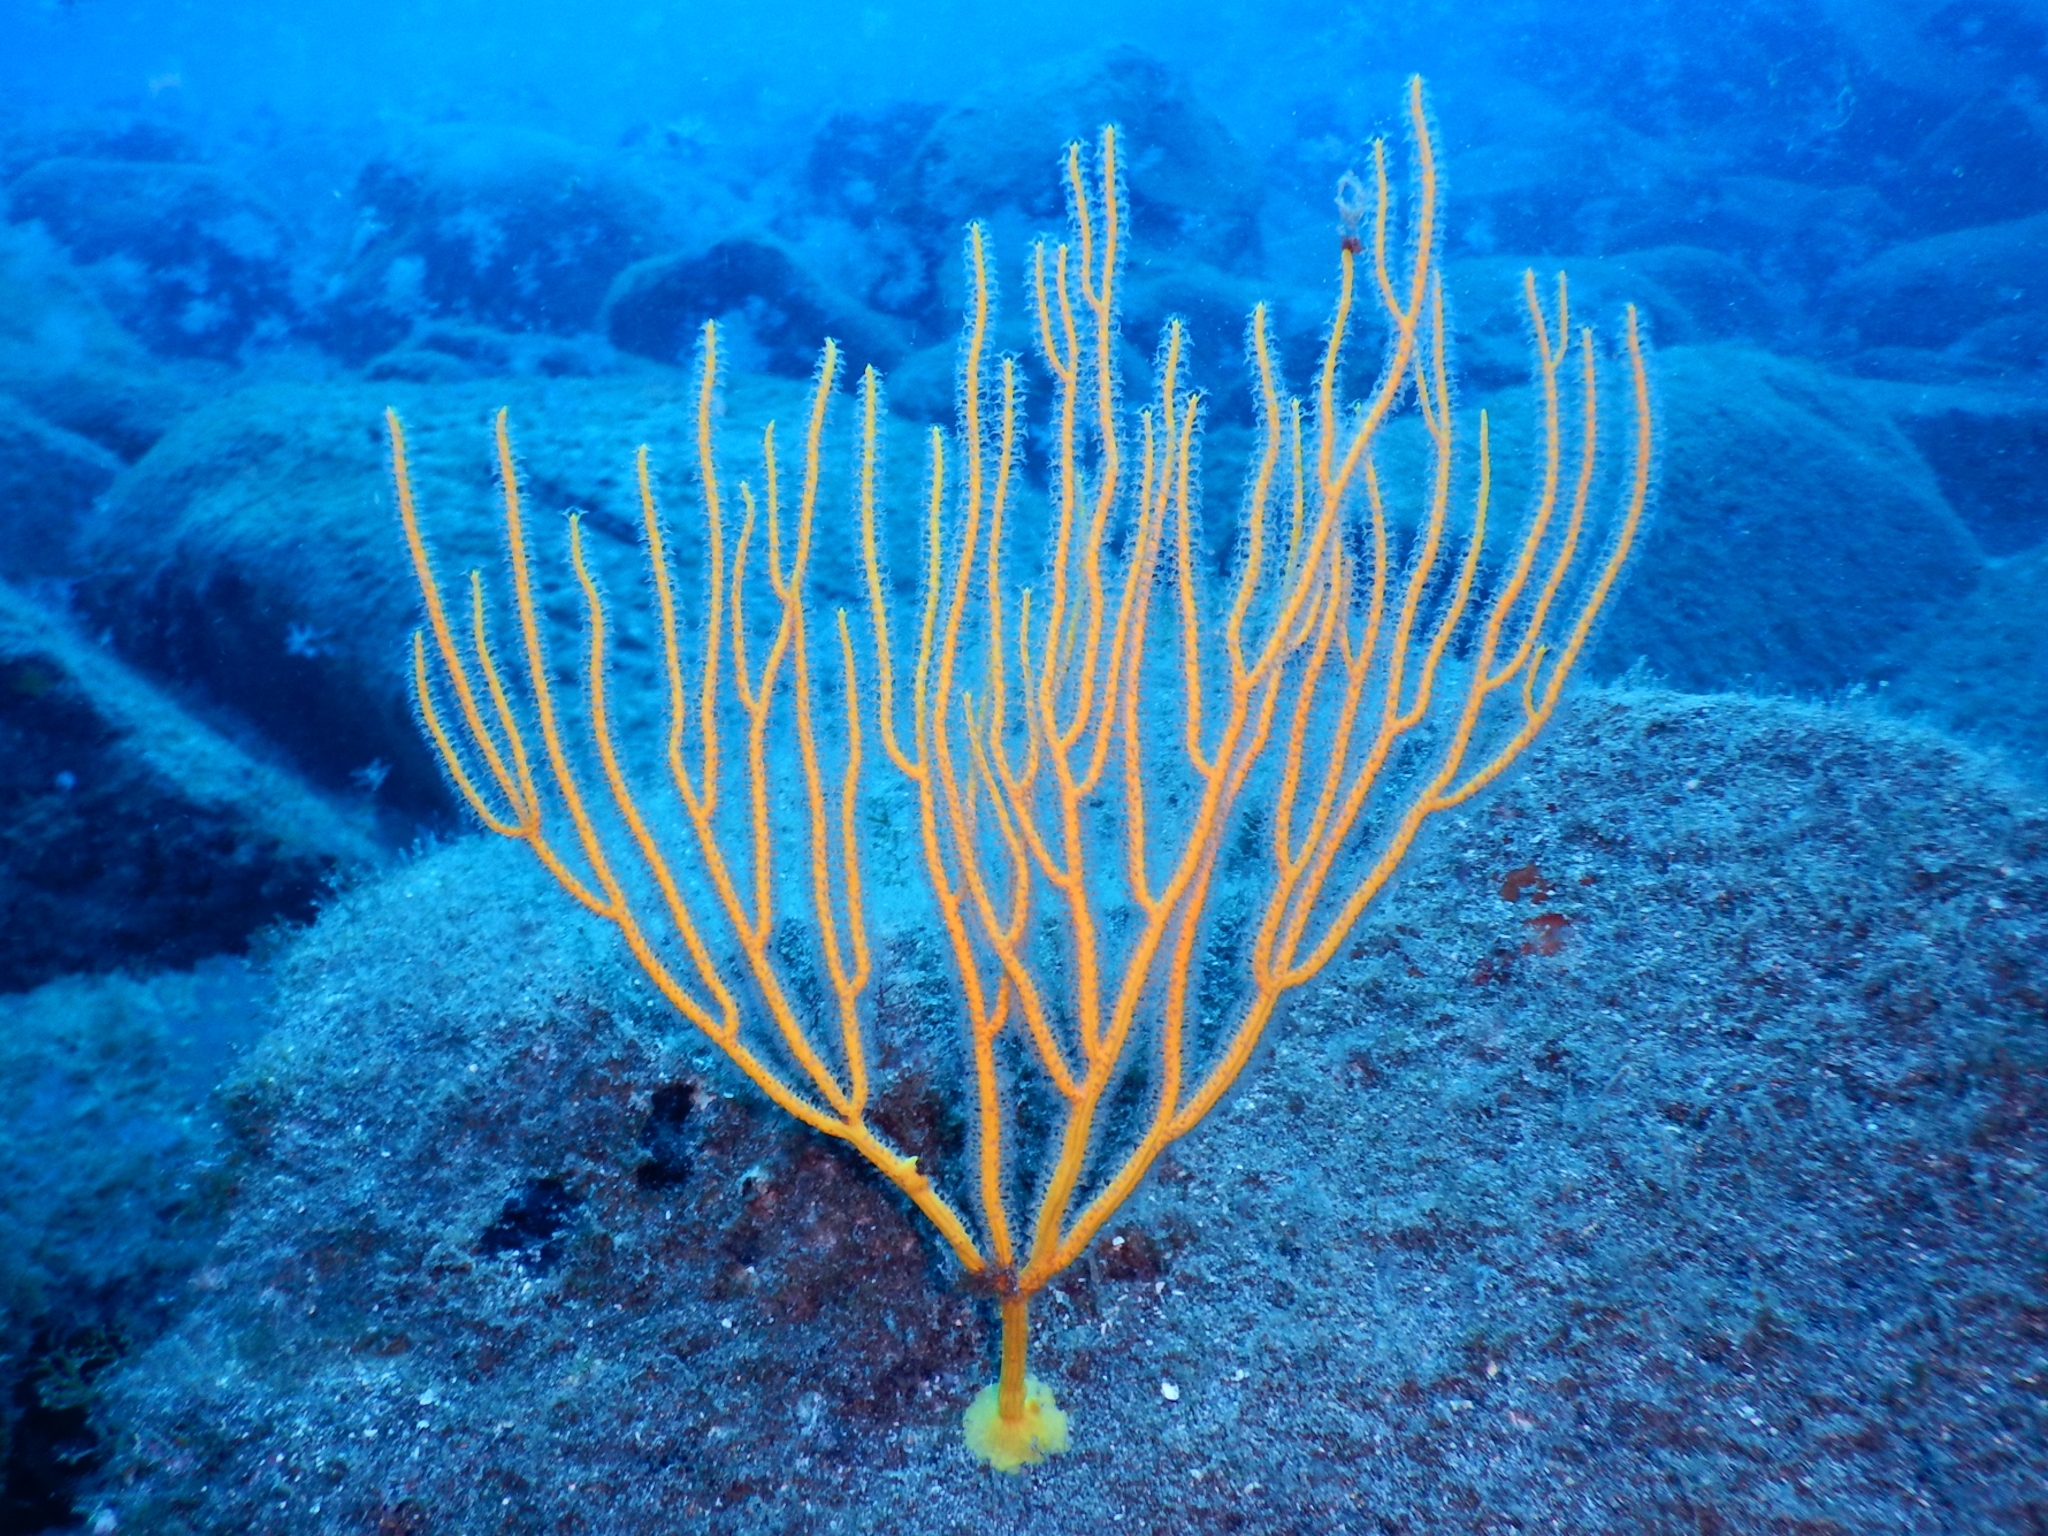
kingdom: Animalia
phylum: Cnidaria
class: Anthozoa
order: Malacalcyonacea
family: Gorgoniidae
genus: Leptogorgia
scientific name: Leptogorgia viminalis
